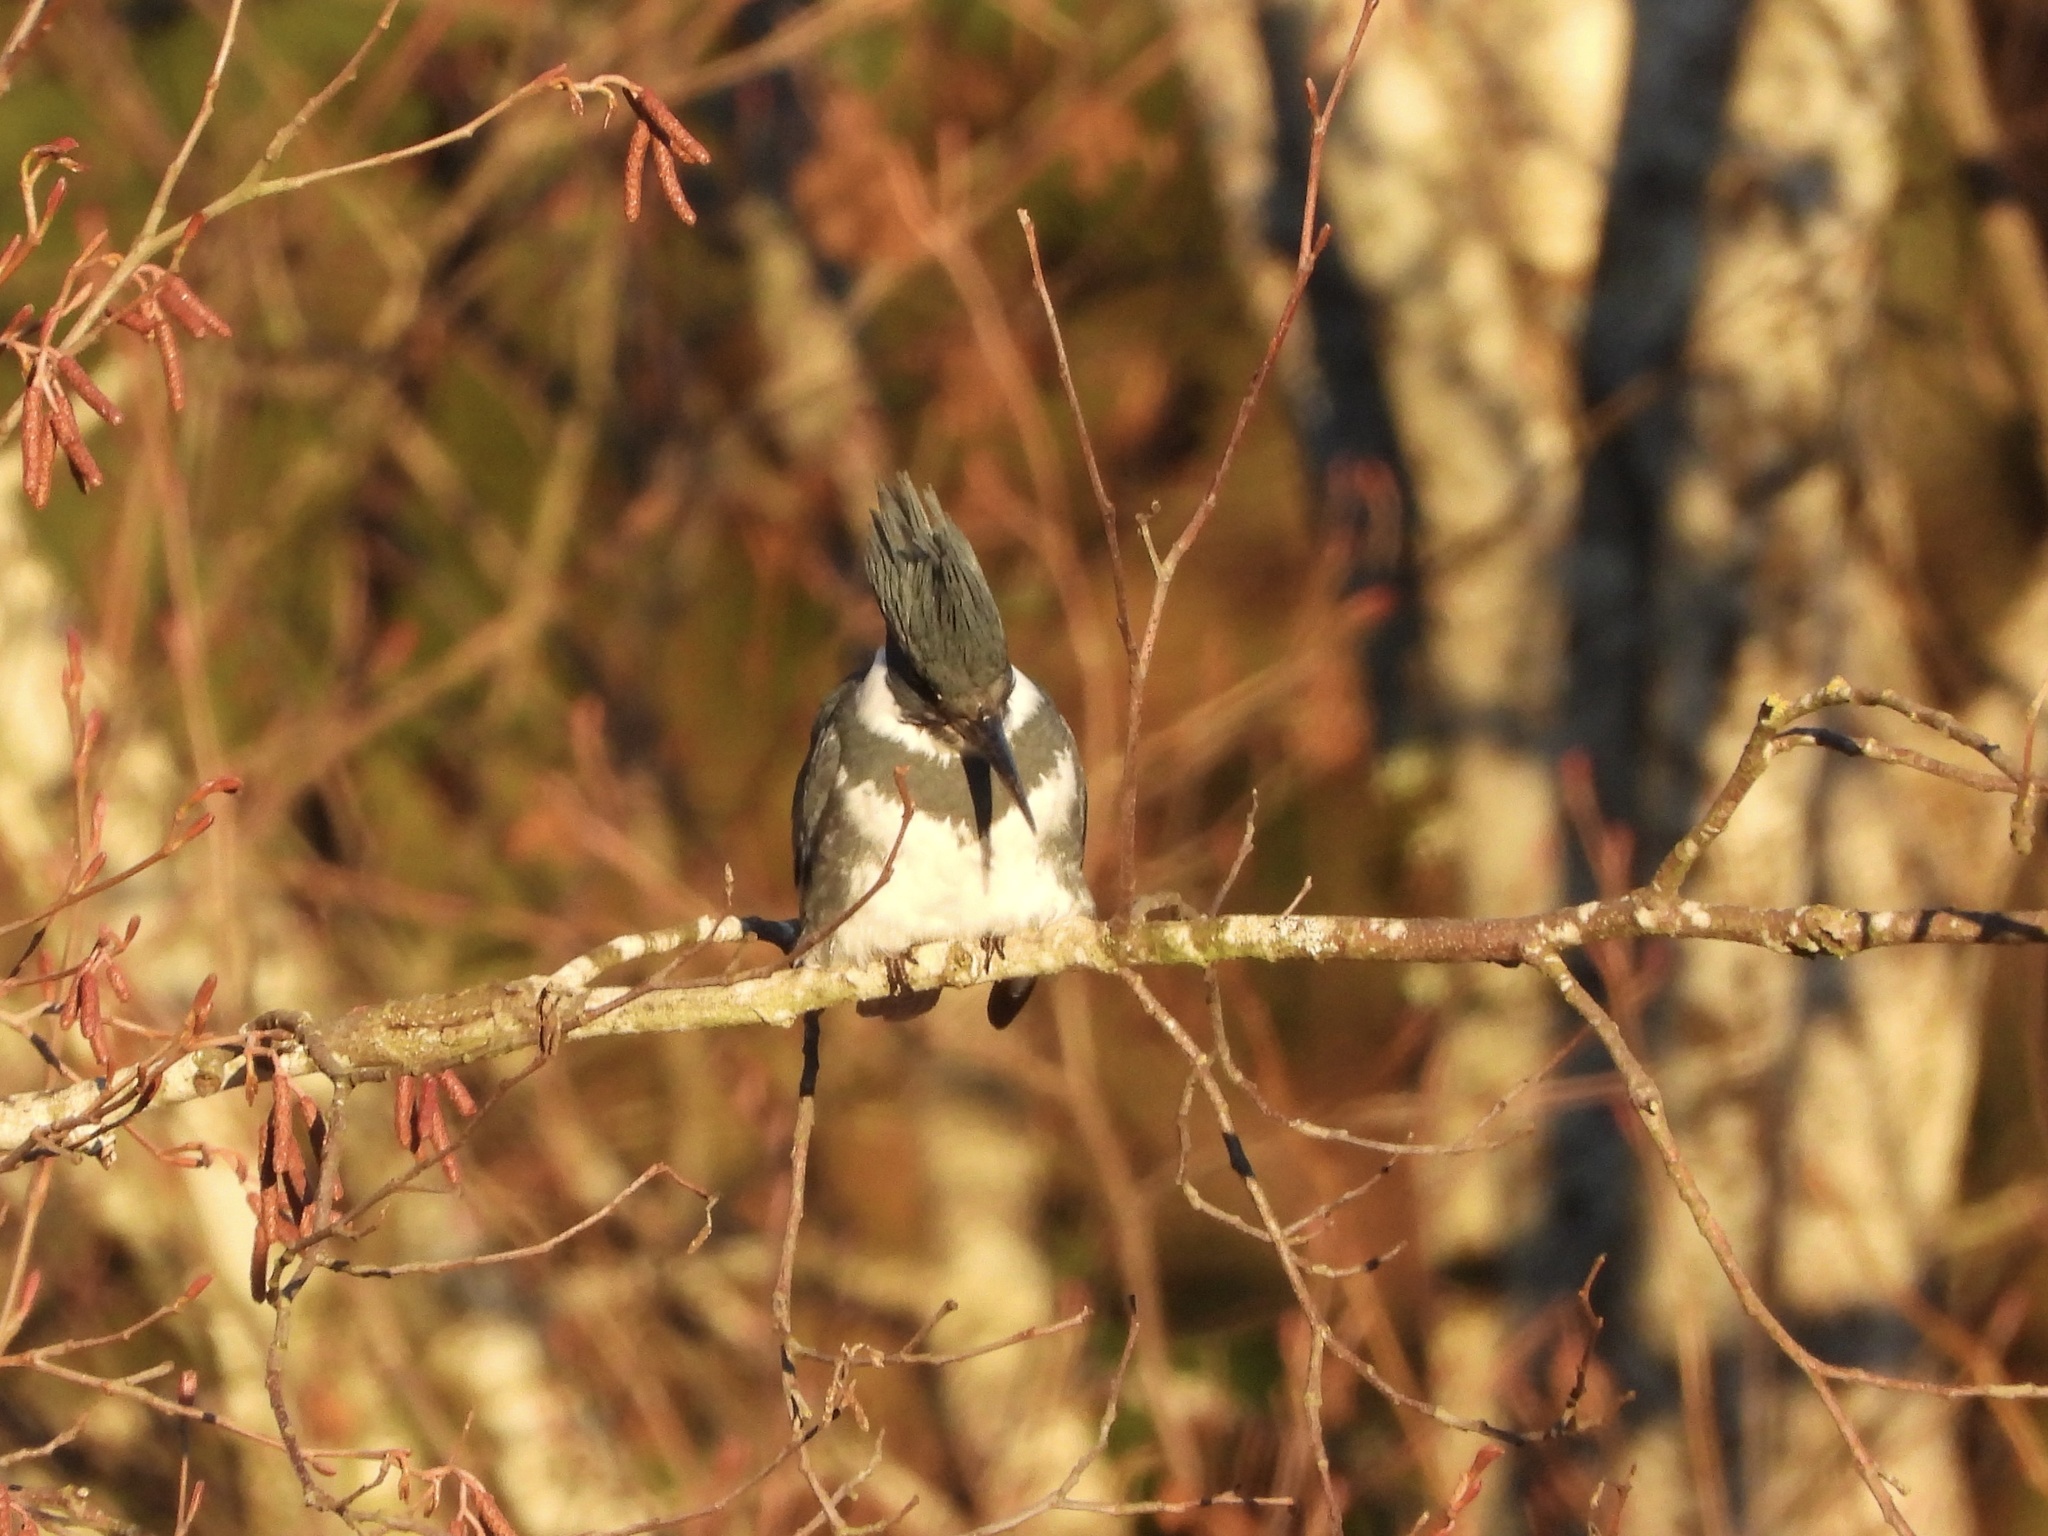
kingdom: Animalia
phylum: Chordata
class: Aves
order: Coraciiformes
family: Alcedinidae
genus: Megaceryle
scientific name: Megaceryle alcyon
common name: Belted kingfisher
